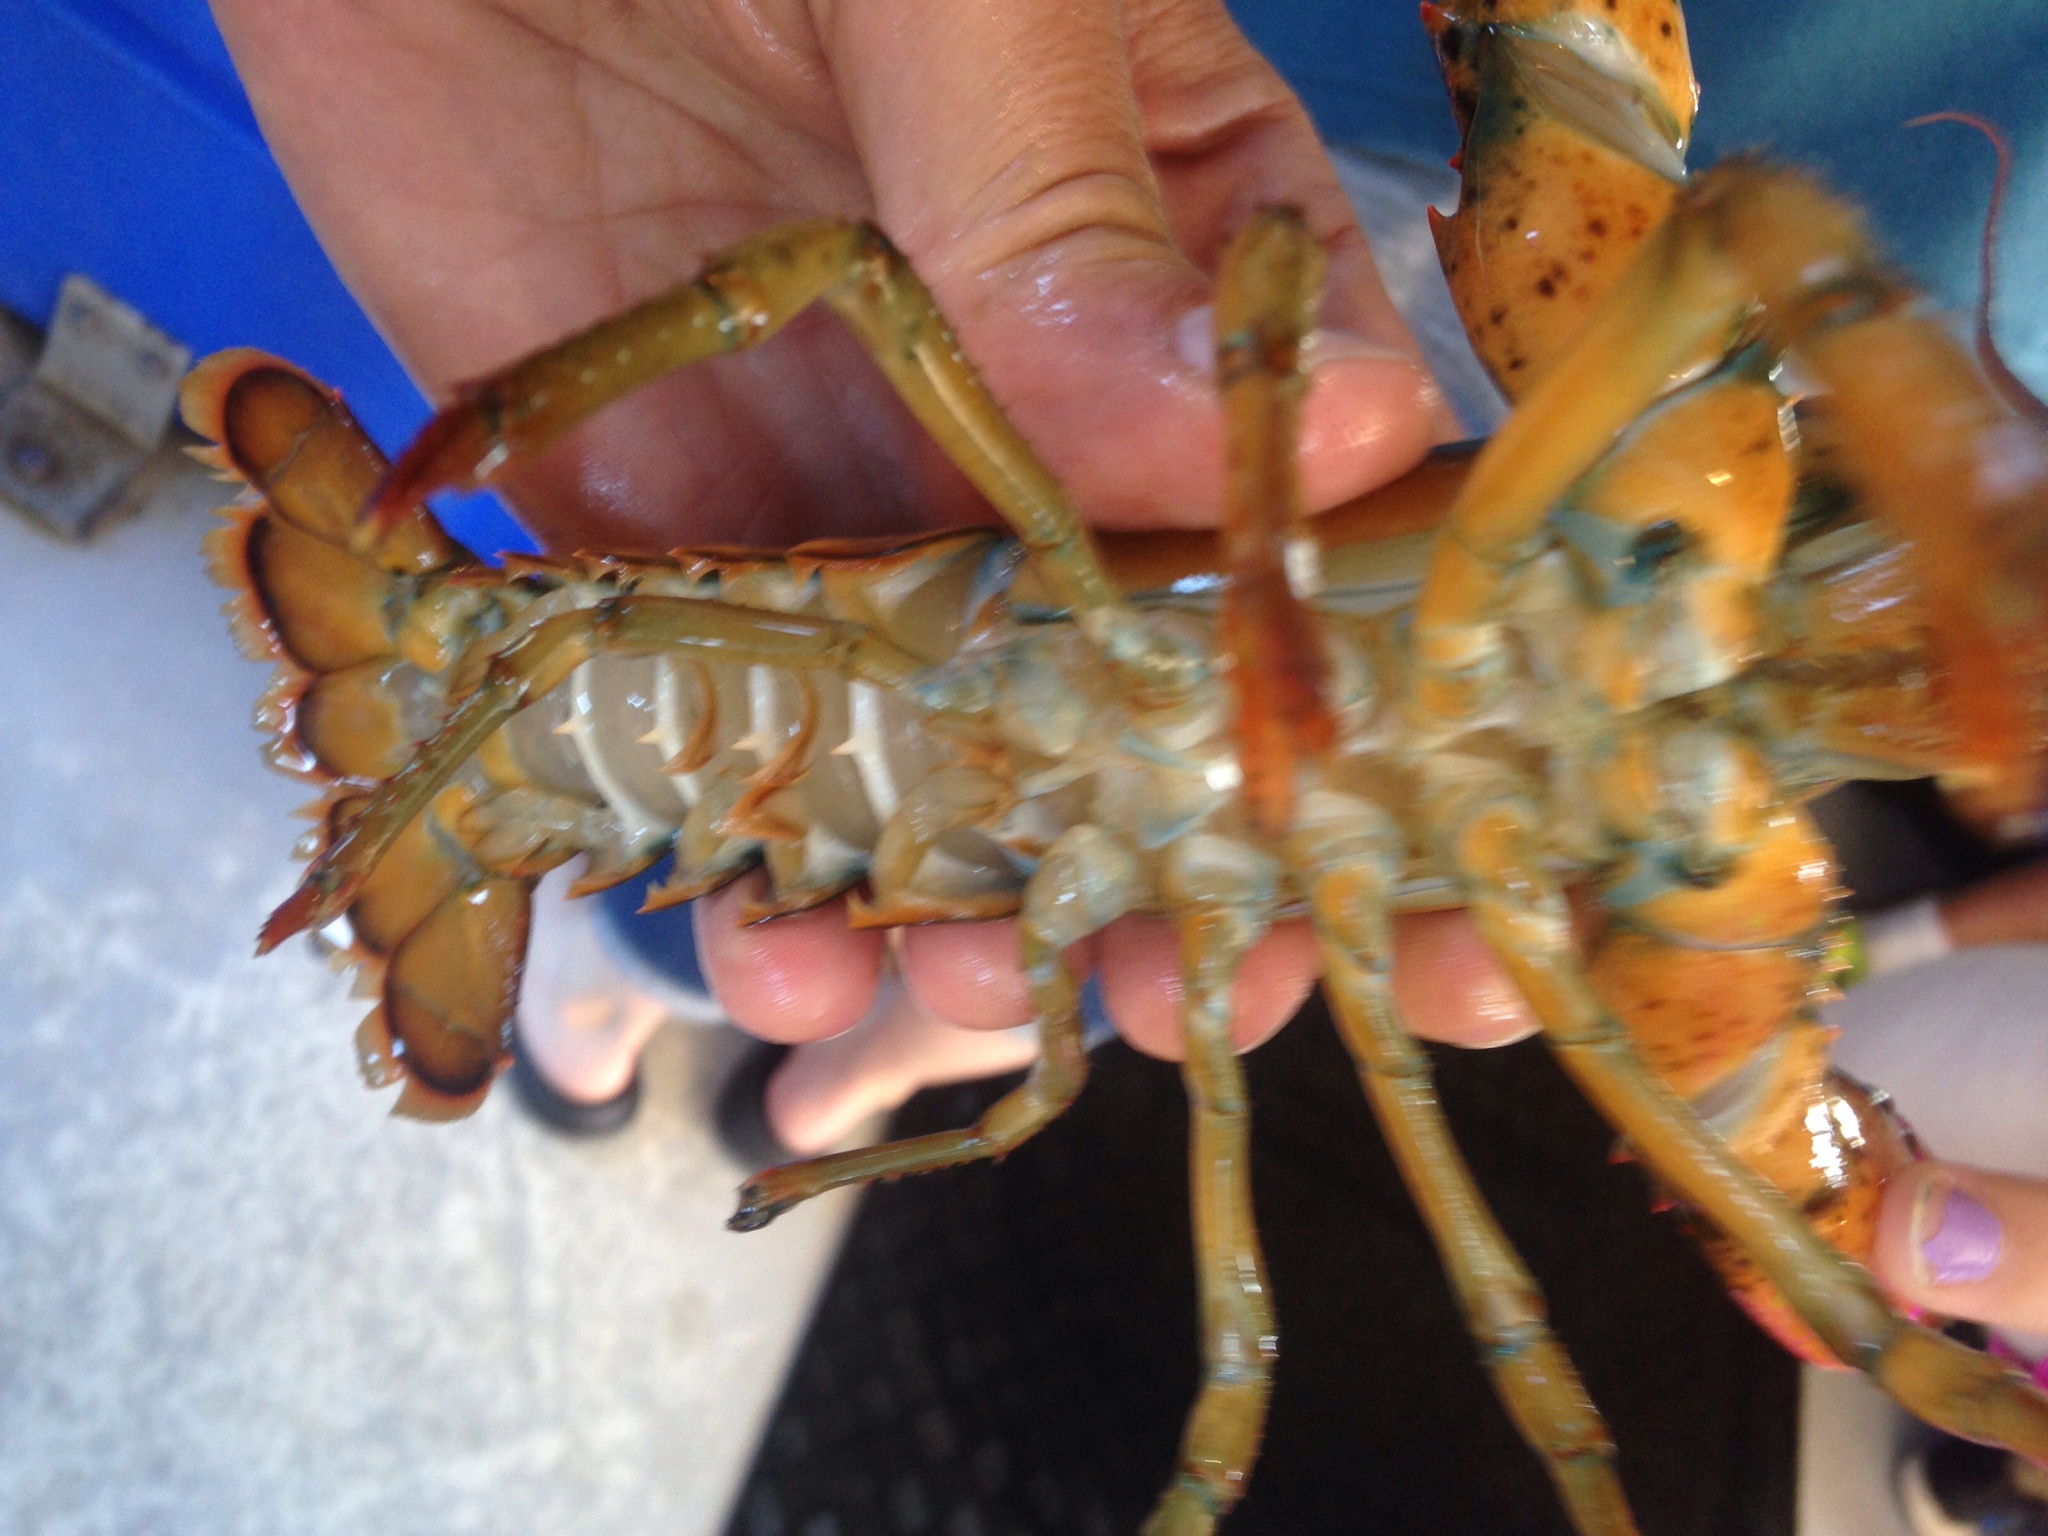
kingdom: Animalia
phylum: Arthropoda
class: Malacostraca
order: Decapoda
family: Nephropidae
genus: Homarus
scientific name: Homarus americanus
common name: American lobster
